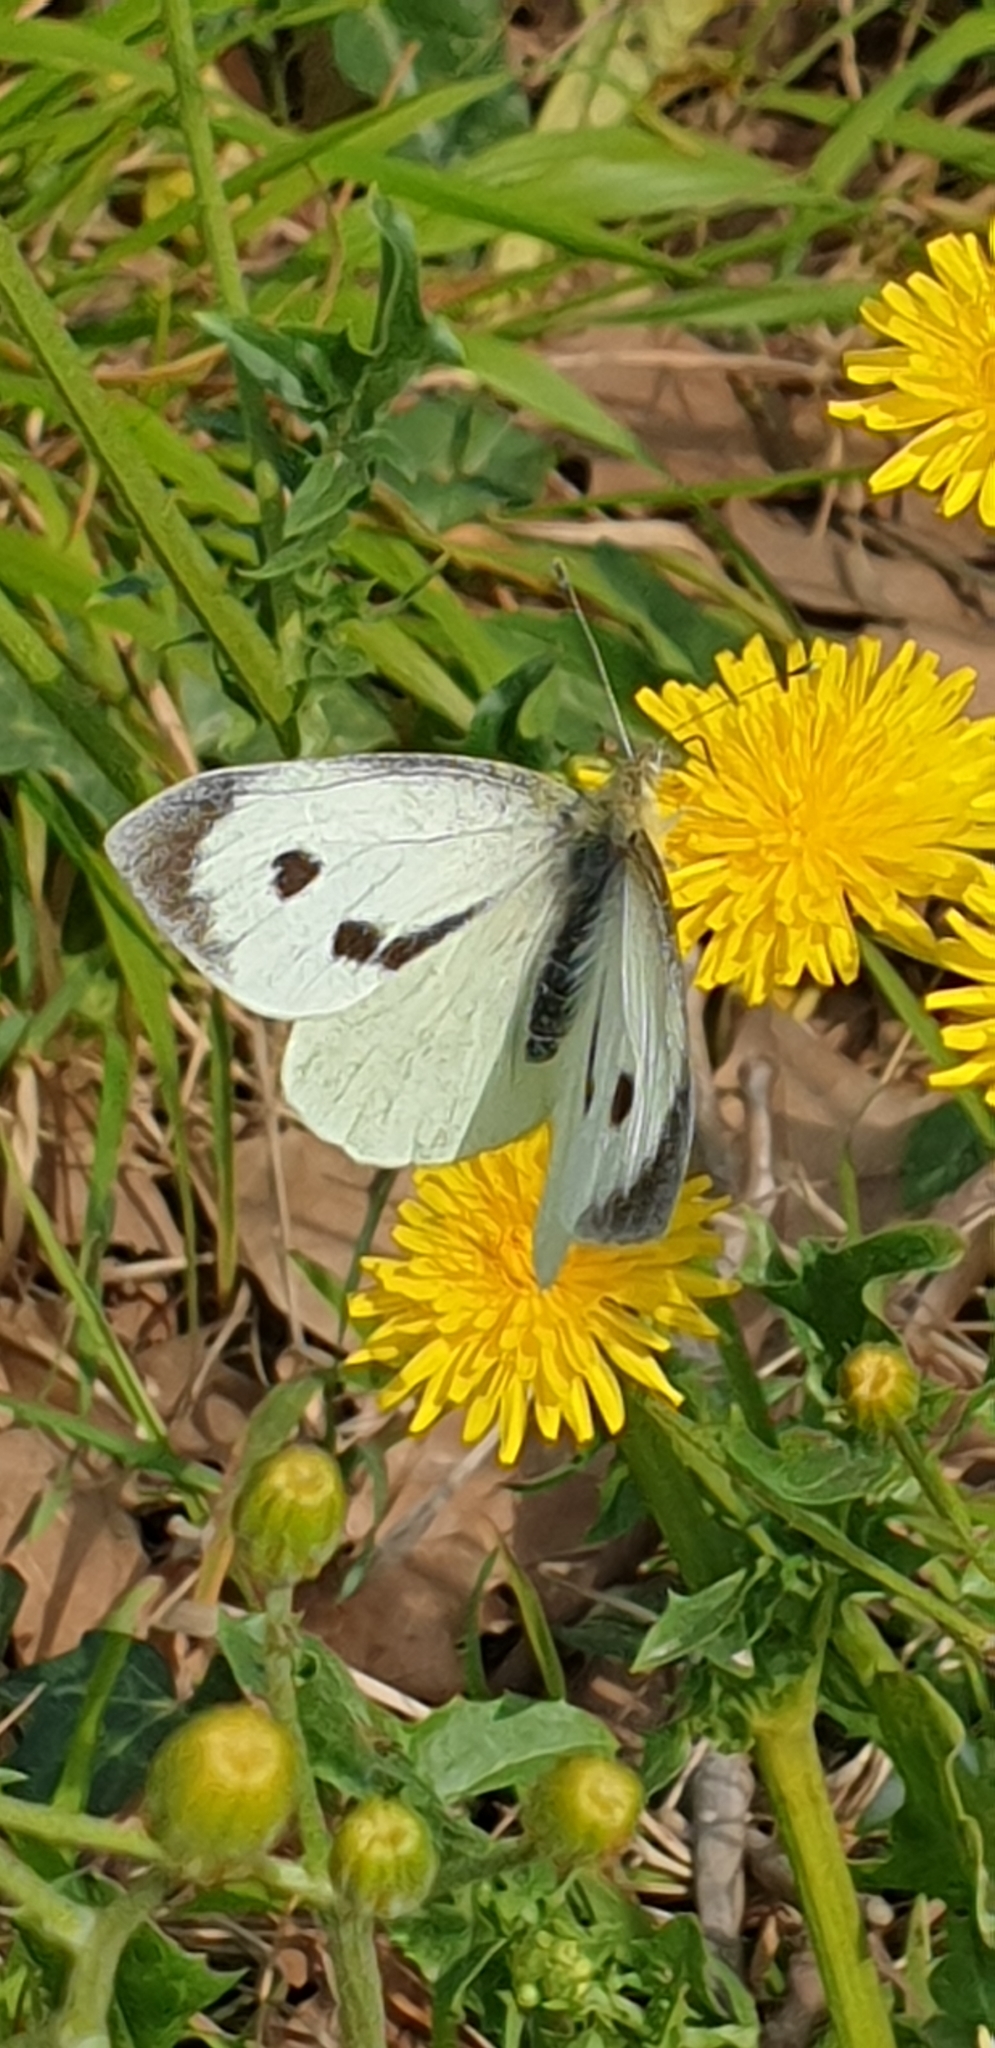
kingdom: Animalia
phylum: Arthropoda
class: Insecta
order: Lepidoptera
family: Pieridae
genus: Pieris
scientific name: Pieris brassicae
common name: Large white
